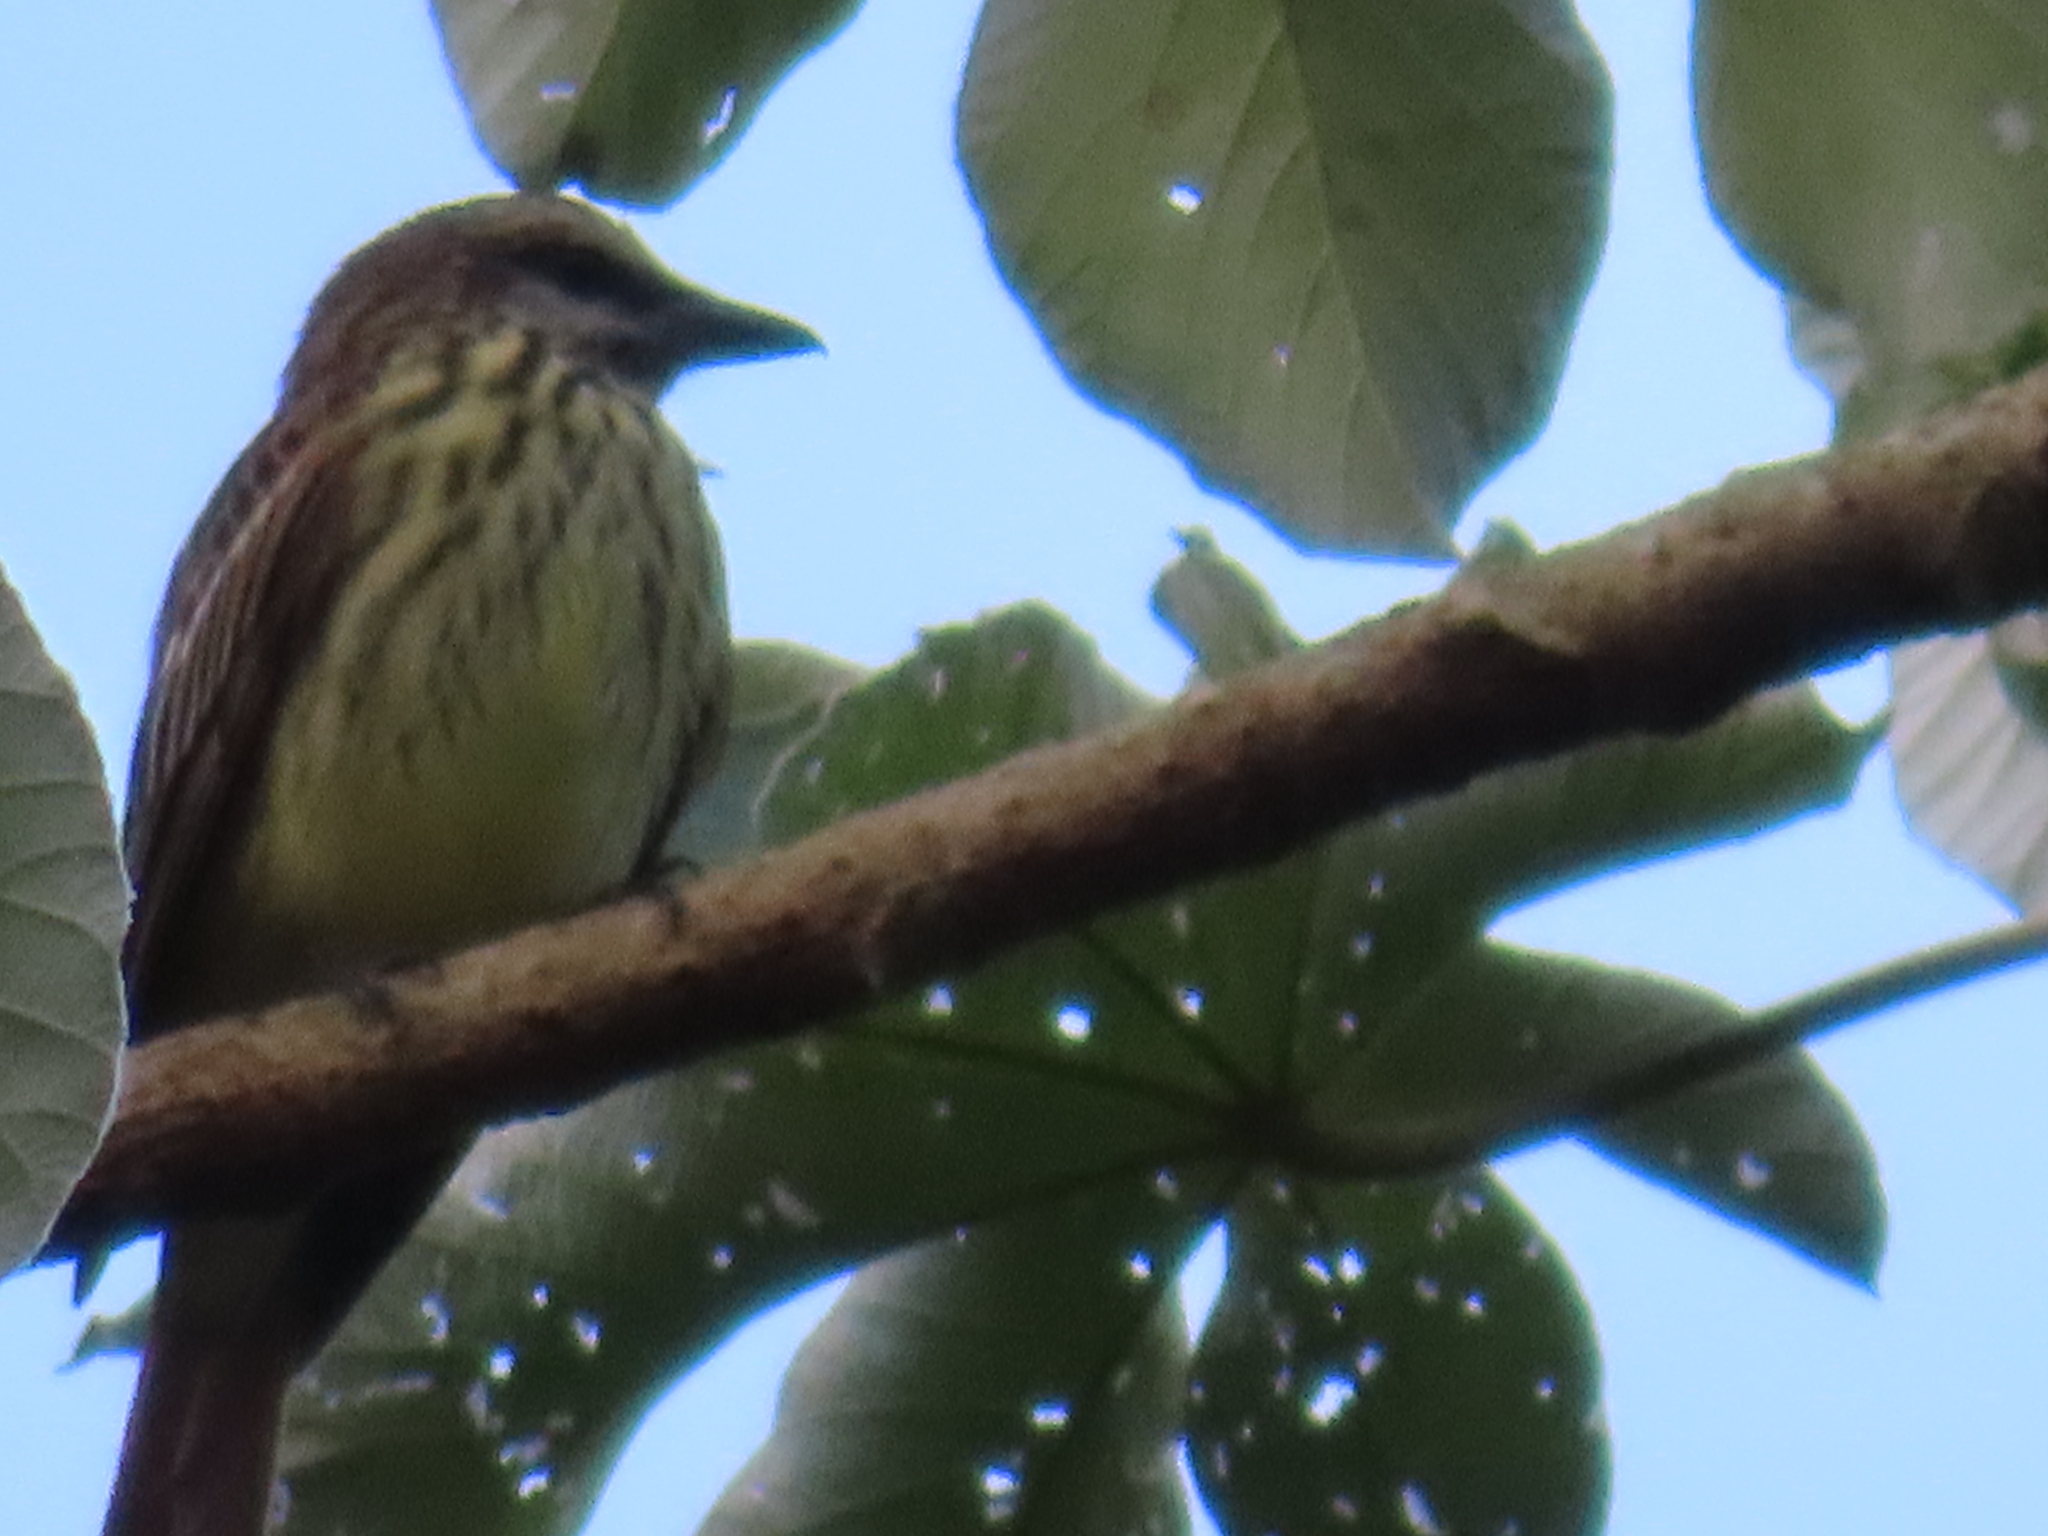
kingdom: Animalia
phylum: Chordata
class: Aves
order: Passeriformes
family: Tyrannidae
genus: Myiodynastes
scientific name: Myiodynastes luteiventris
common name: Sulphur-bellied flycatcher
